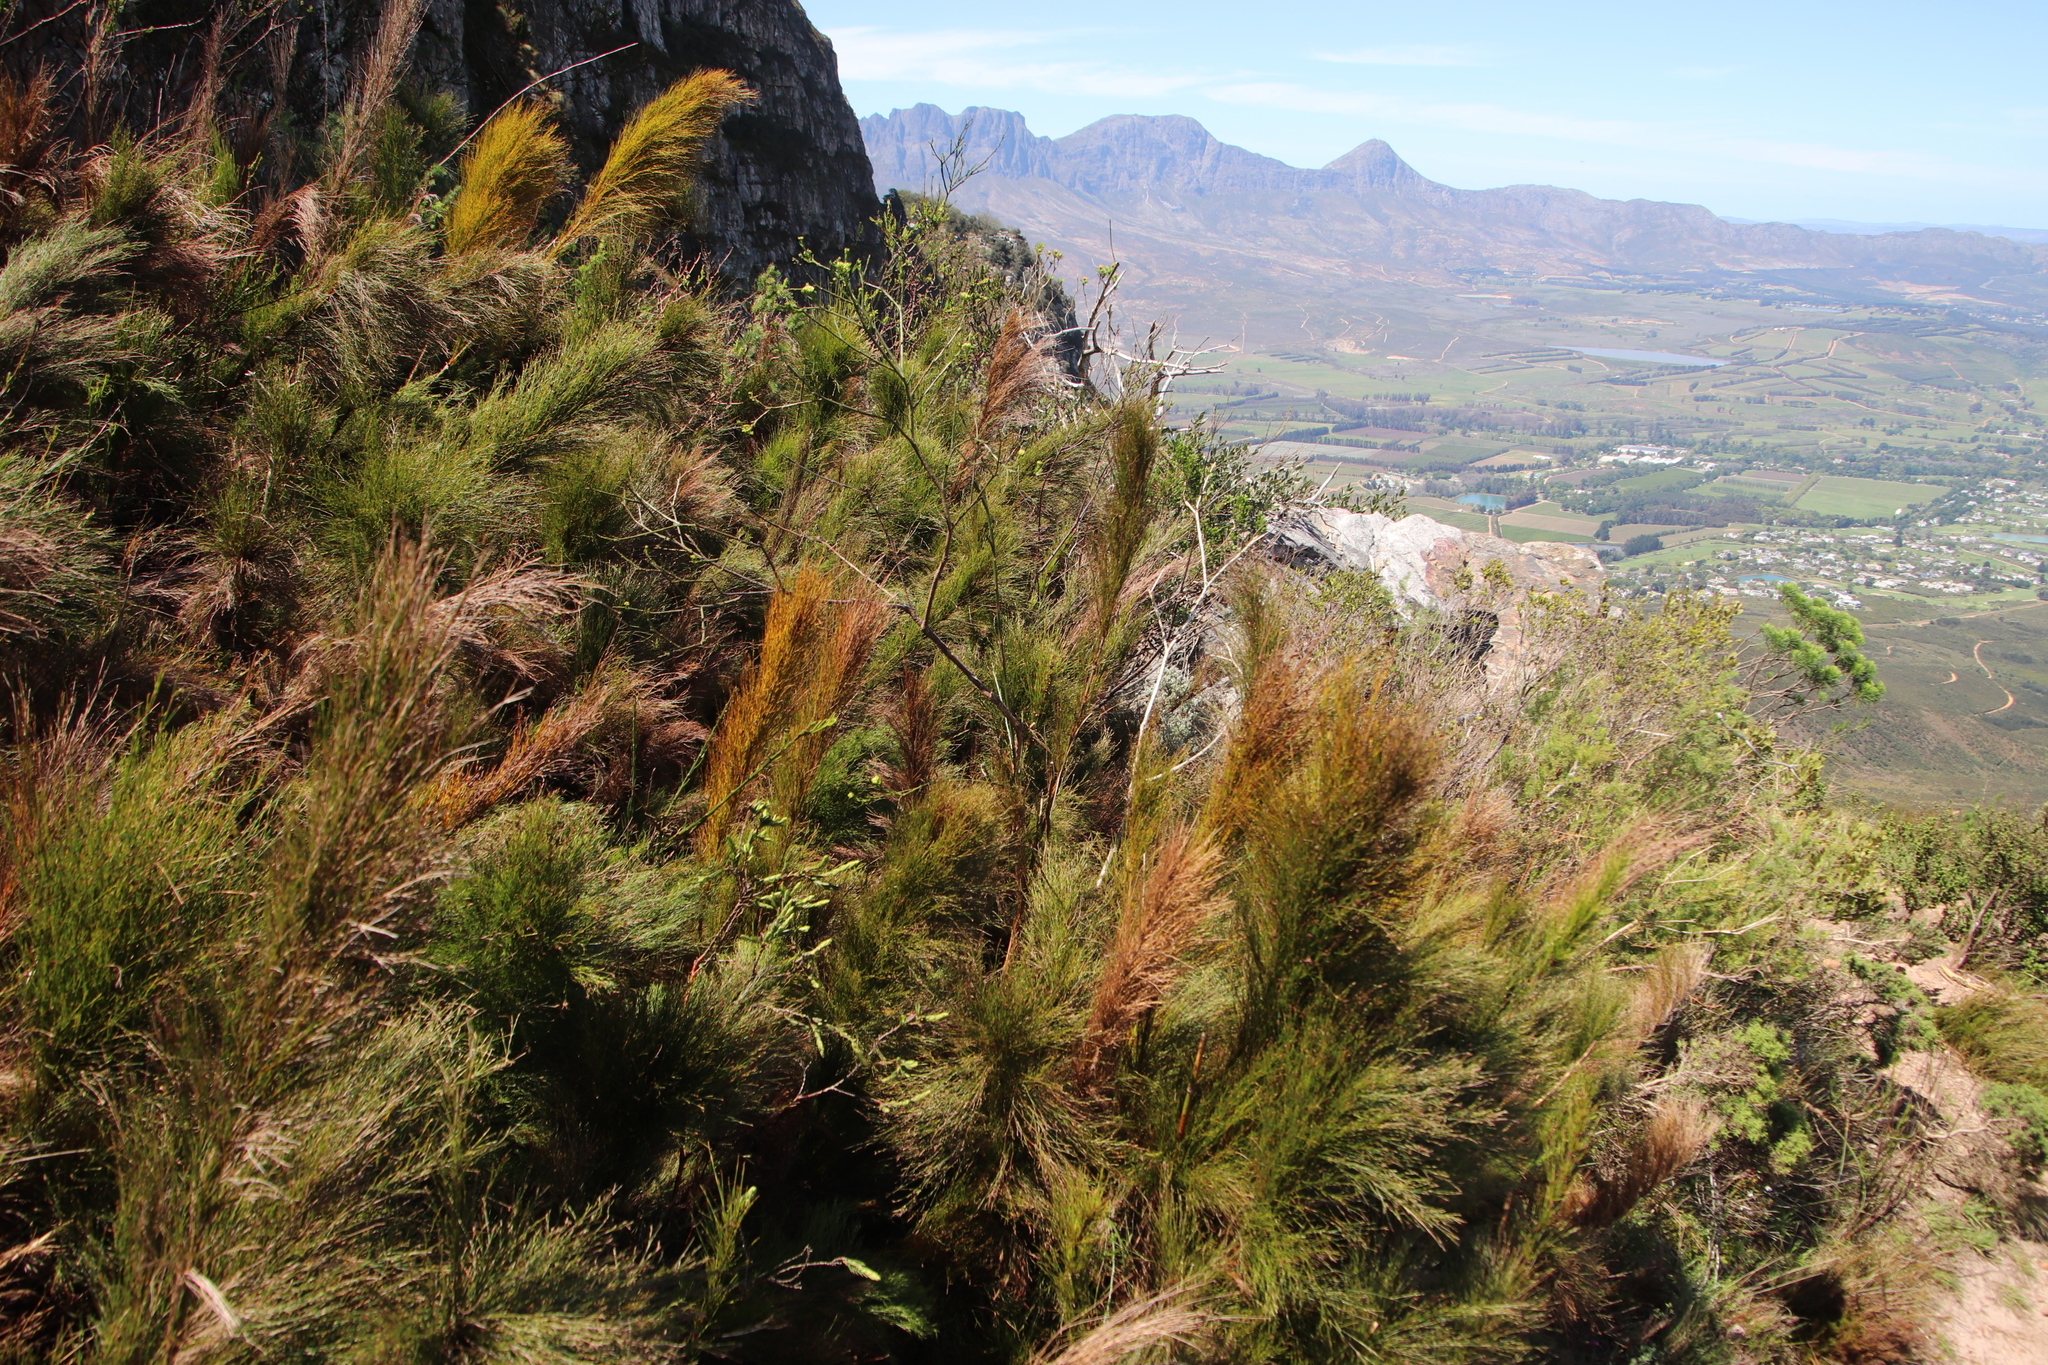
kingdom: Plantae
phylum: Tracheophyta
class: Liliopsida
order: Poales
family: Restionaceae
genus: Restio
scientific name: Restio subverticillatus
